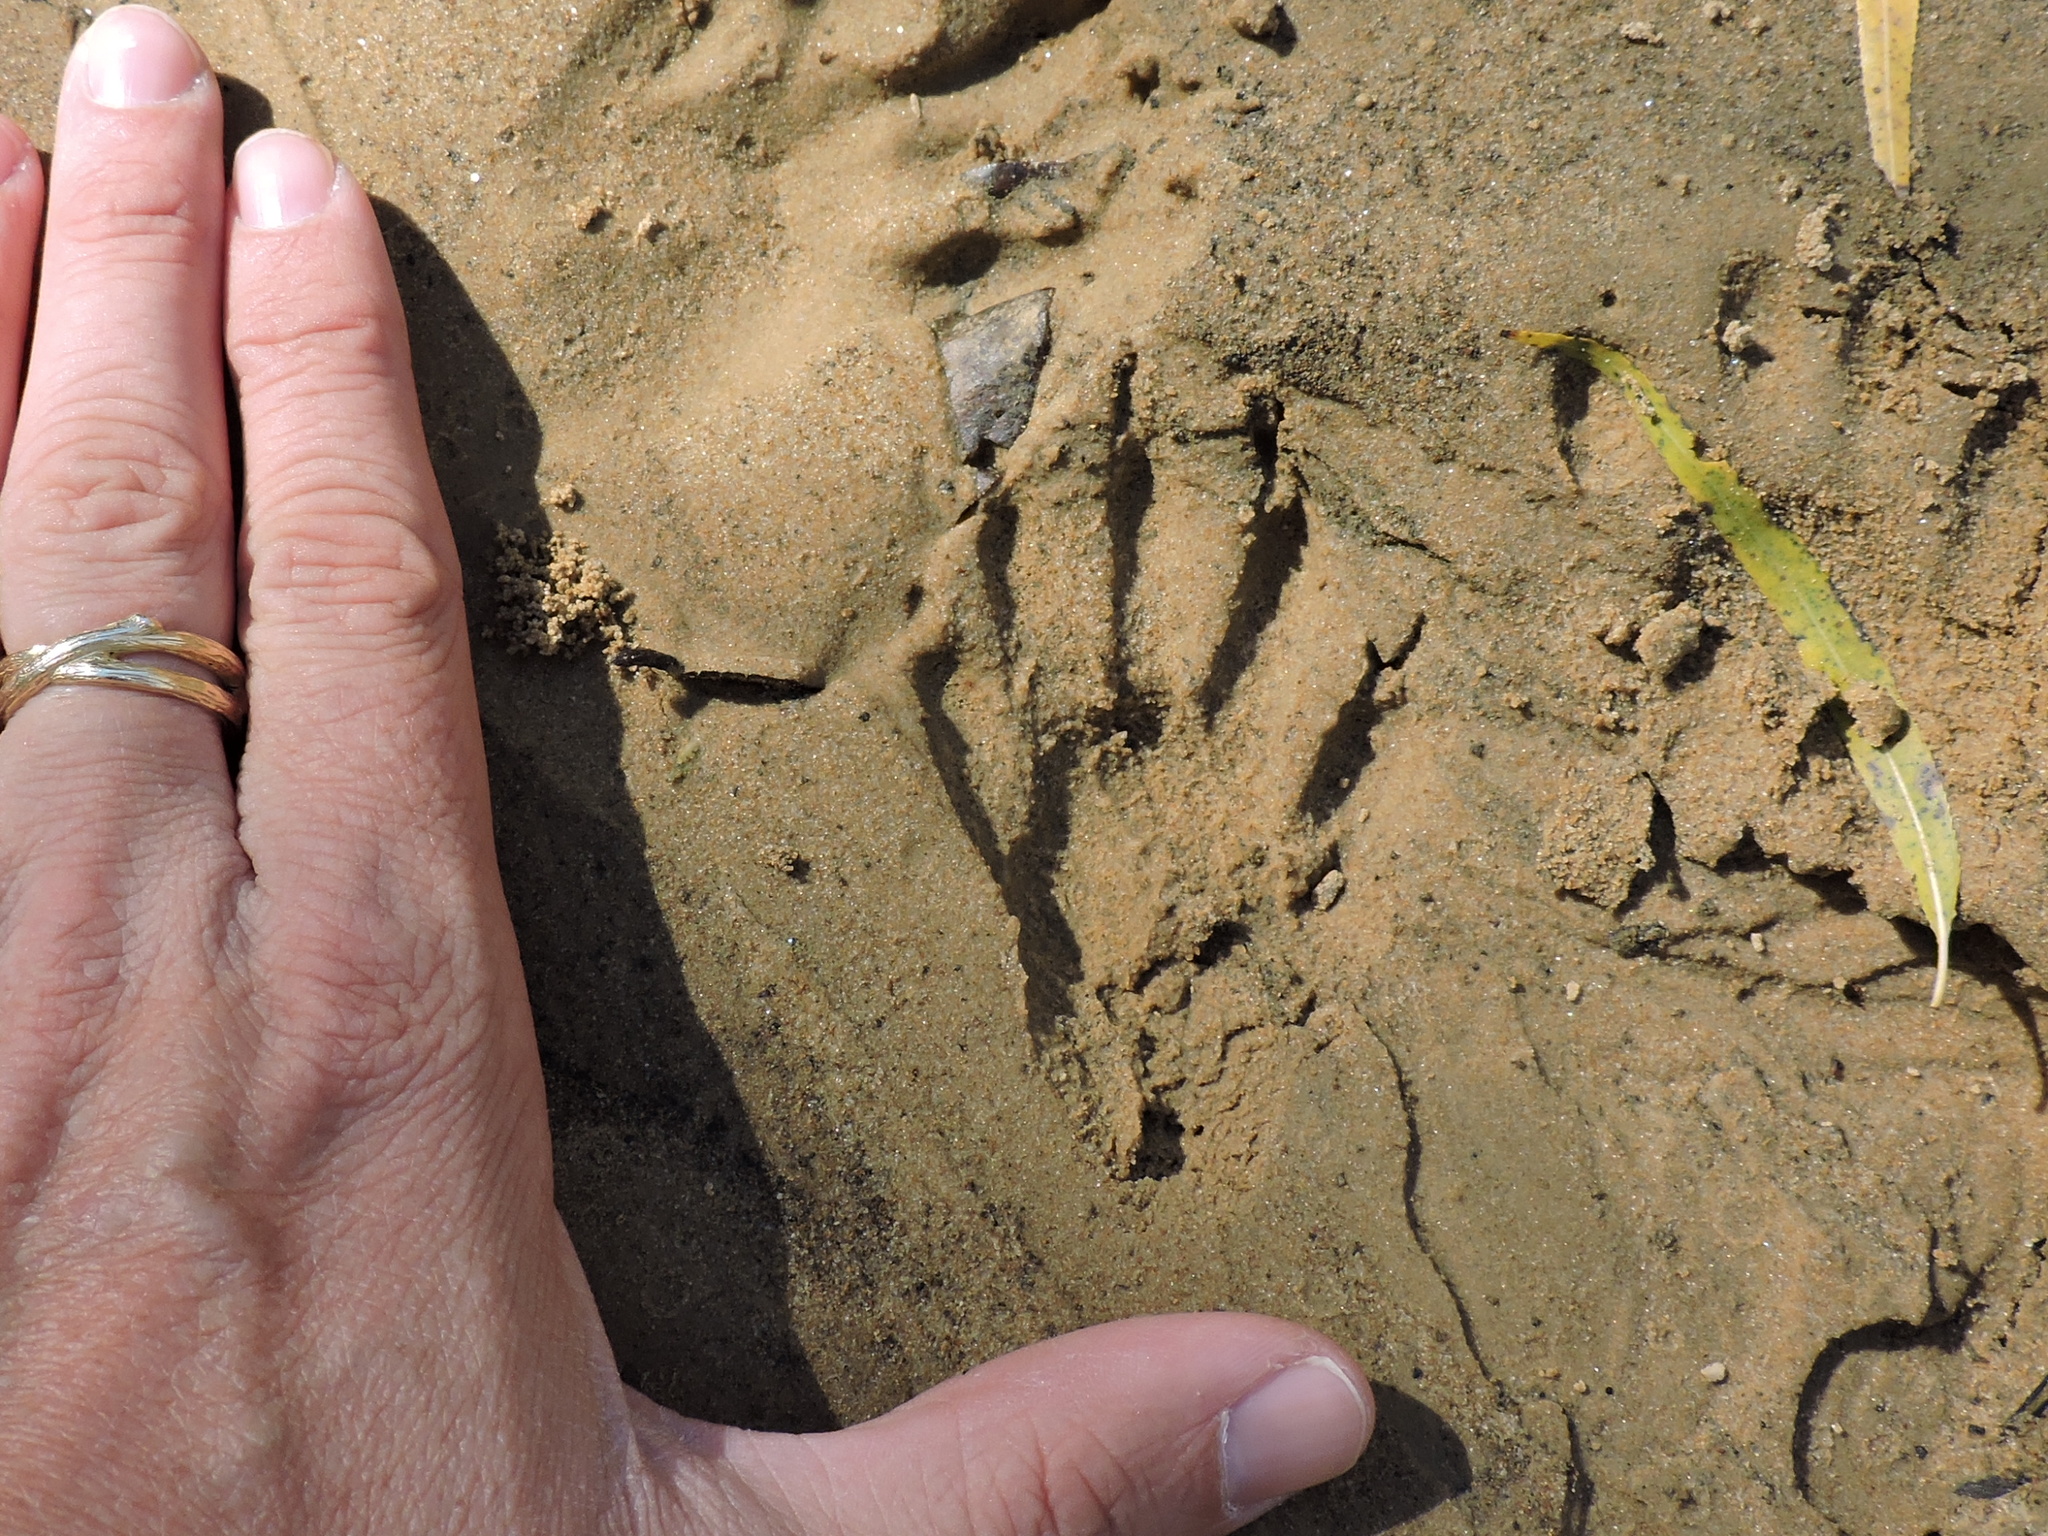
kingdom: Animalia
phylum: Chordata
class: Mammalia
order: Carnivora
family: Procyonidae
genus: Procyon
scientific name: Procyon lotor
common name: Raccoon
